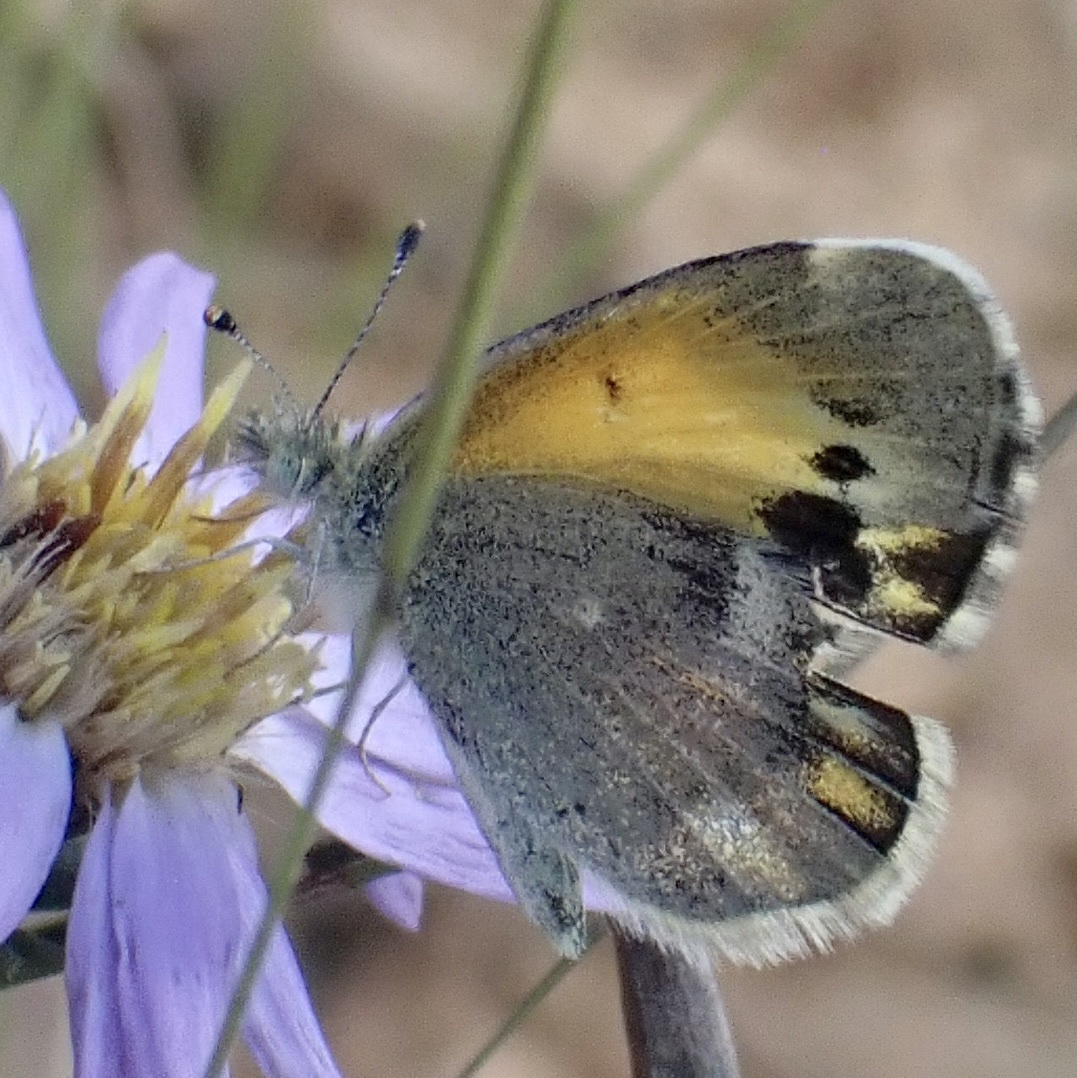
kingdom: Animalia
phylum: Arthropoda
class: Insecta
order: Lepidoptera
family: Pieridae
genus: Nathalis
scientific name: Nathalis iole
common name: Dainty sulphur
